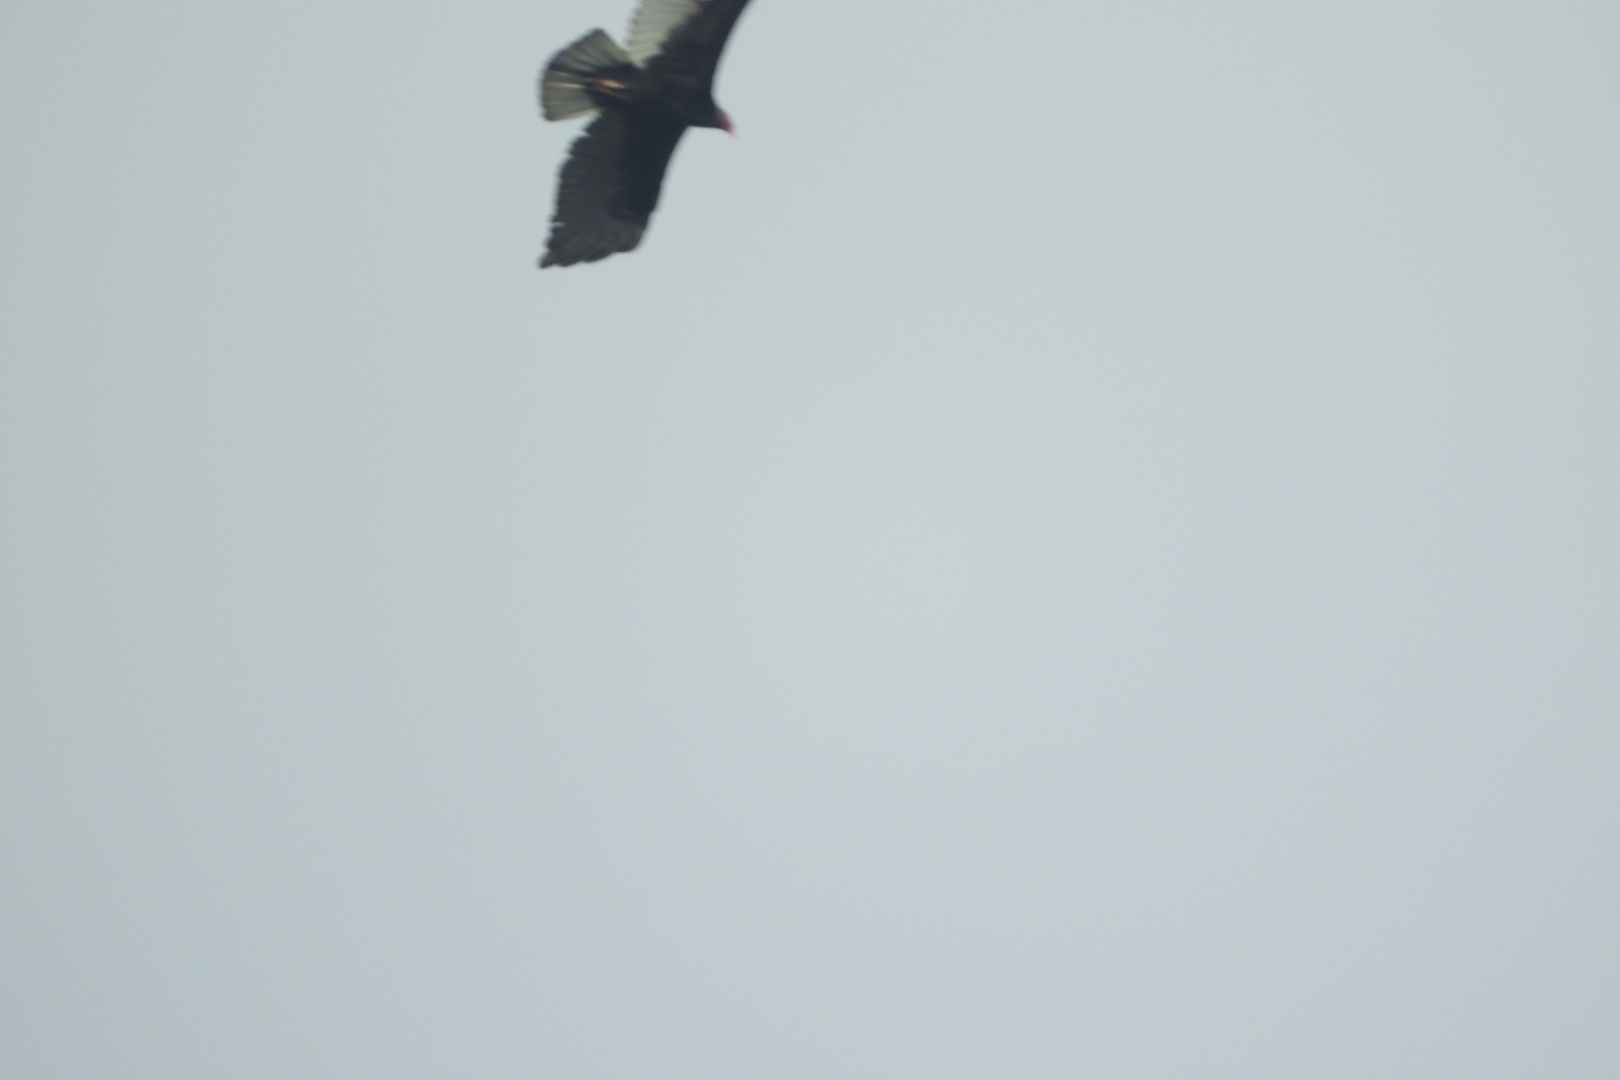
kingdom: Animalia
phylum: Chordata
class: Aves
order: Accipitriformes
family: Cathartidae
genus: Cathartes
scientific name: Cathartes aura
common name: Turkey vulture
